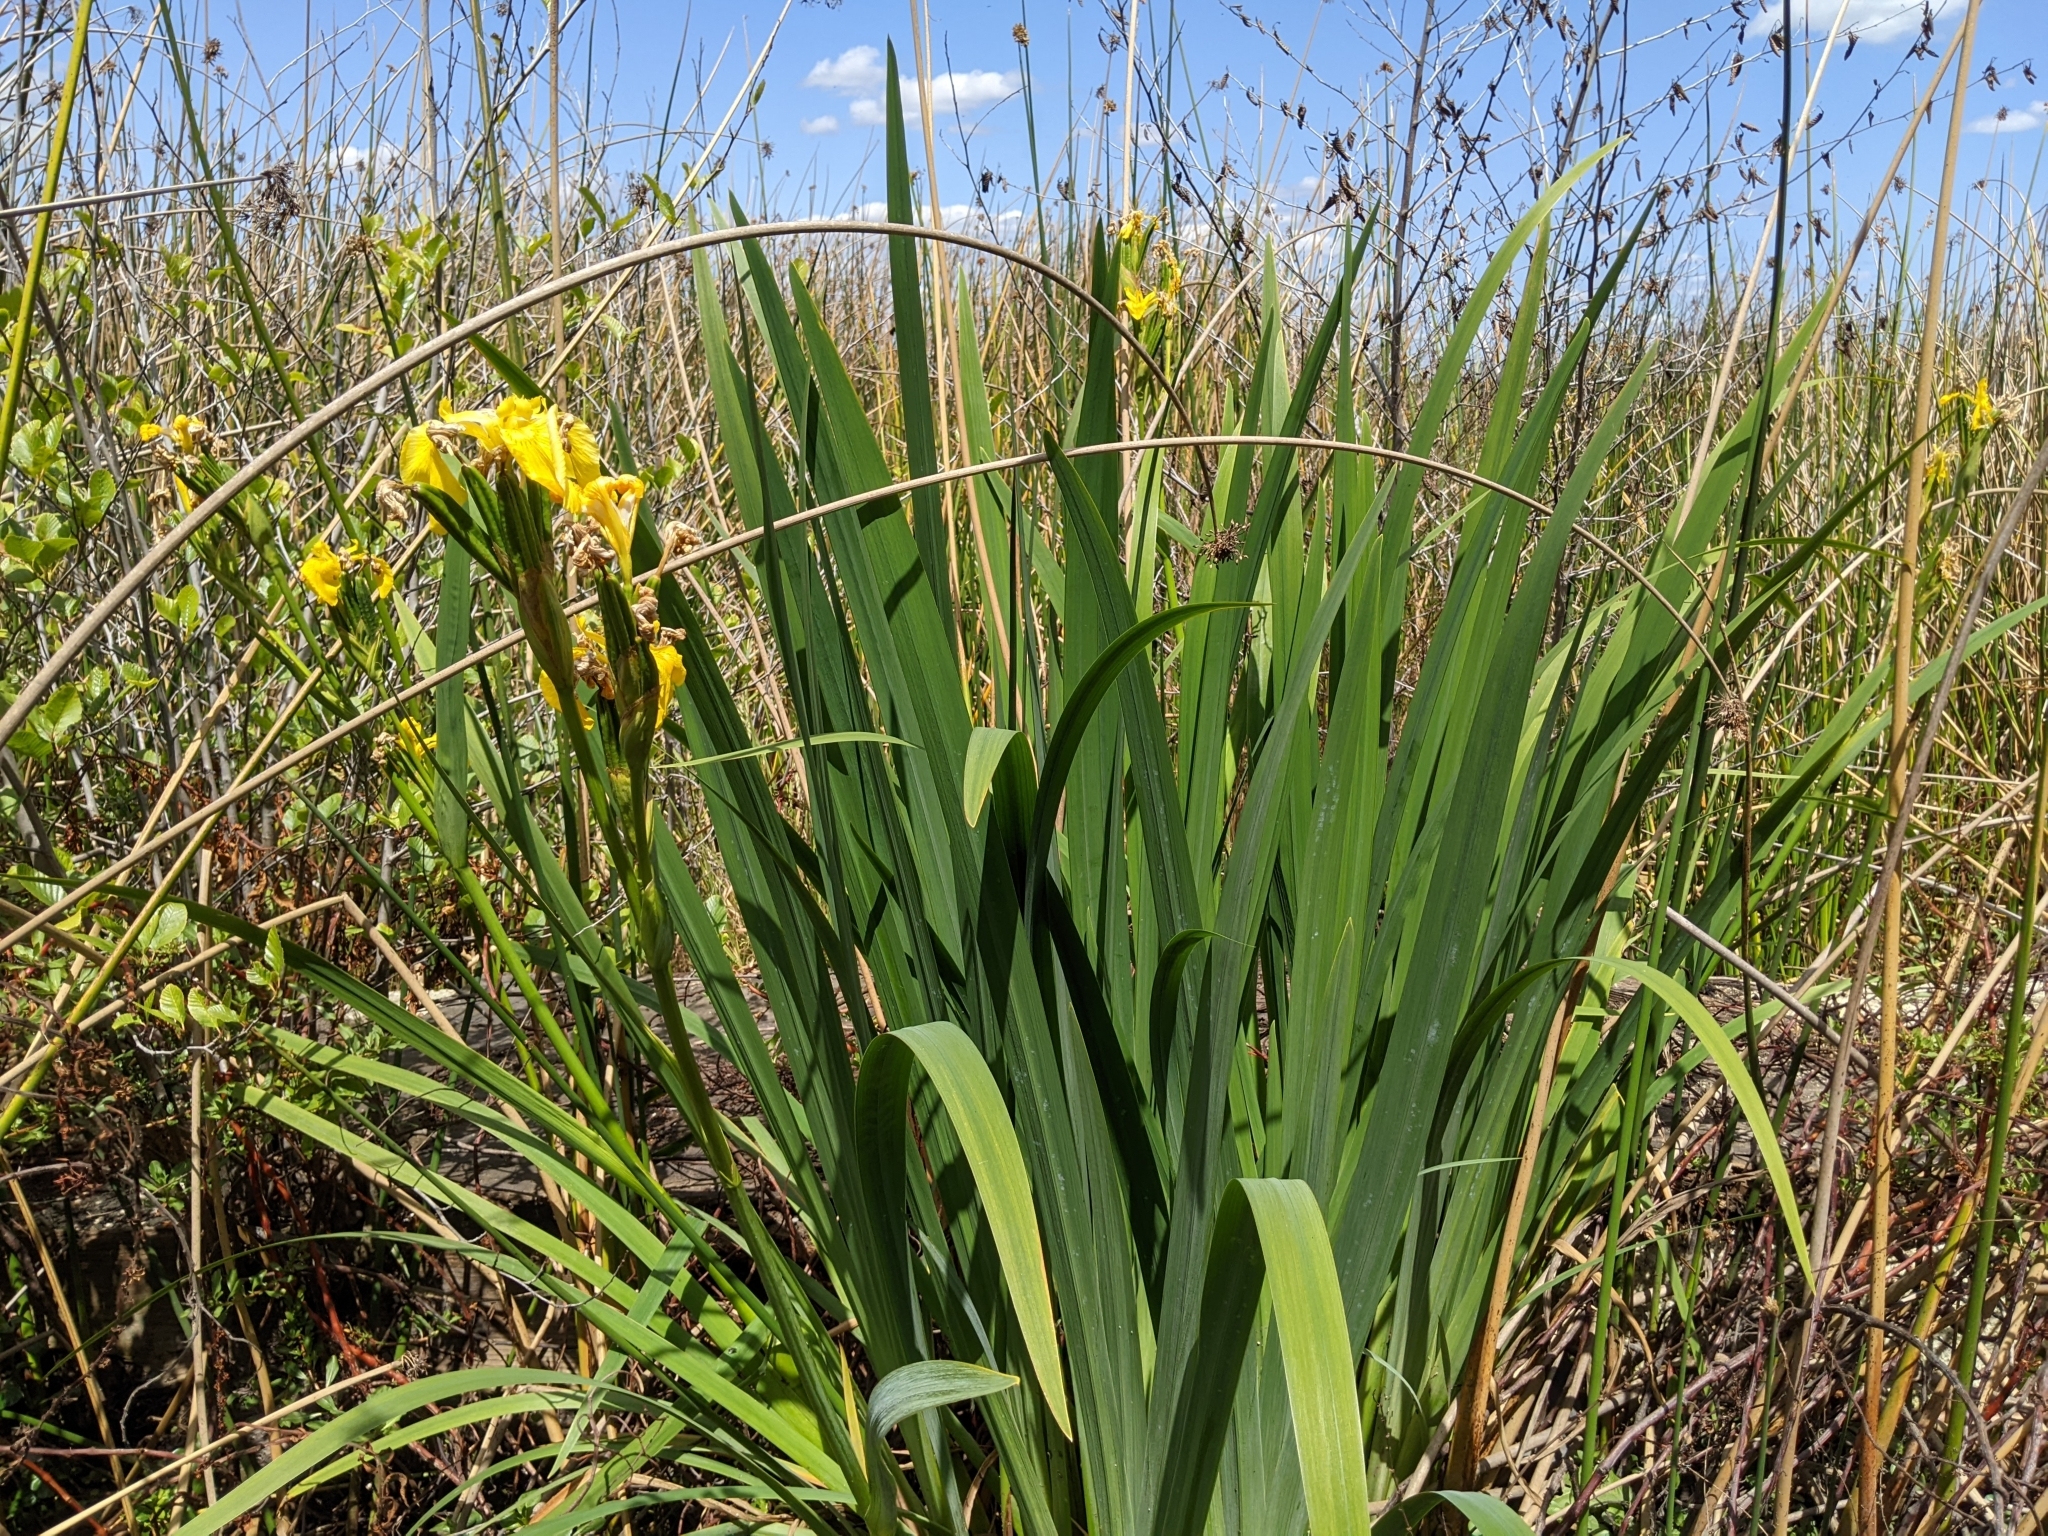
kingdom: Plantae
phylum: Tracheophyta
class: Liliopsida
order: Asparagales
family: Iridaceae
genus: Iris
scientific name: Iris pseudacorus
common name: Yellow flag
